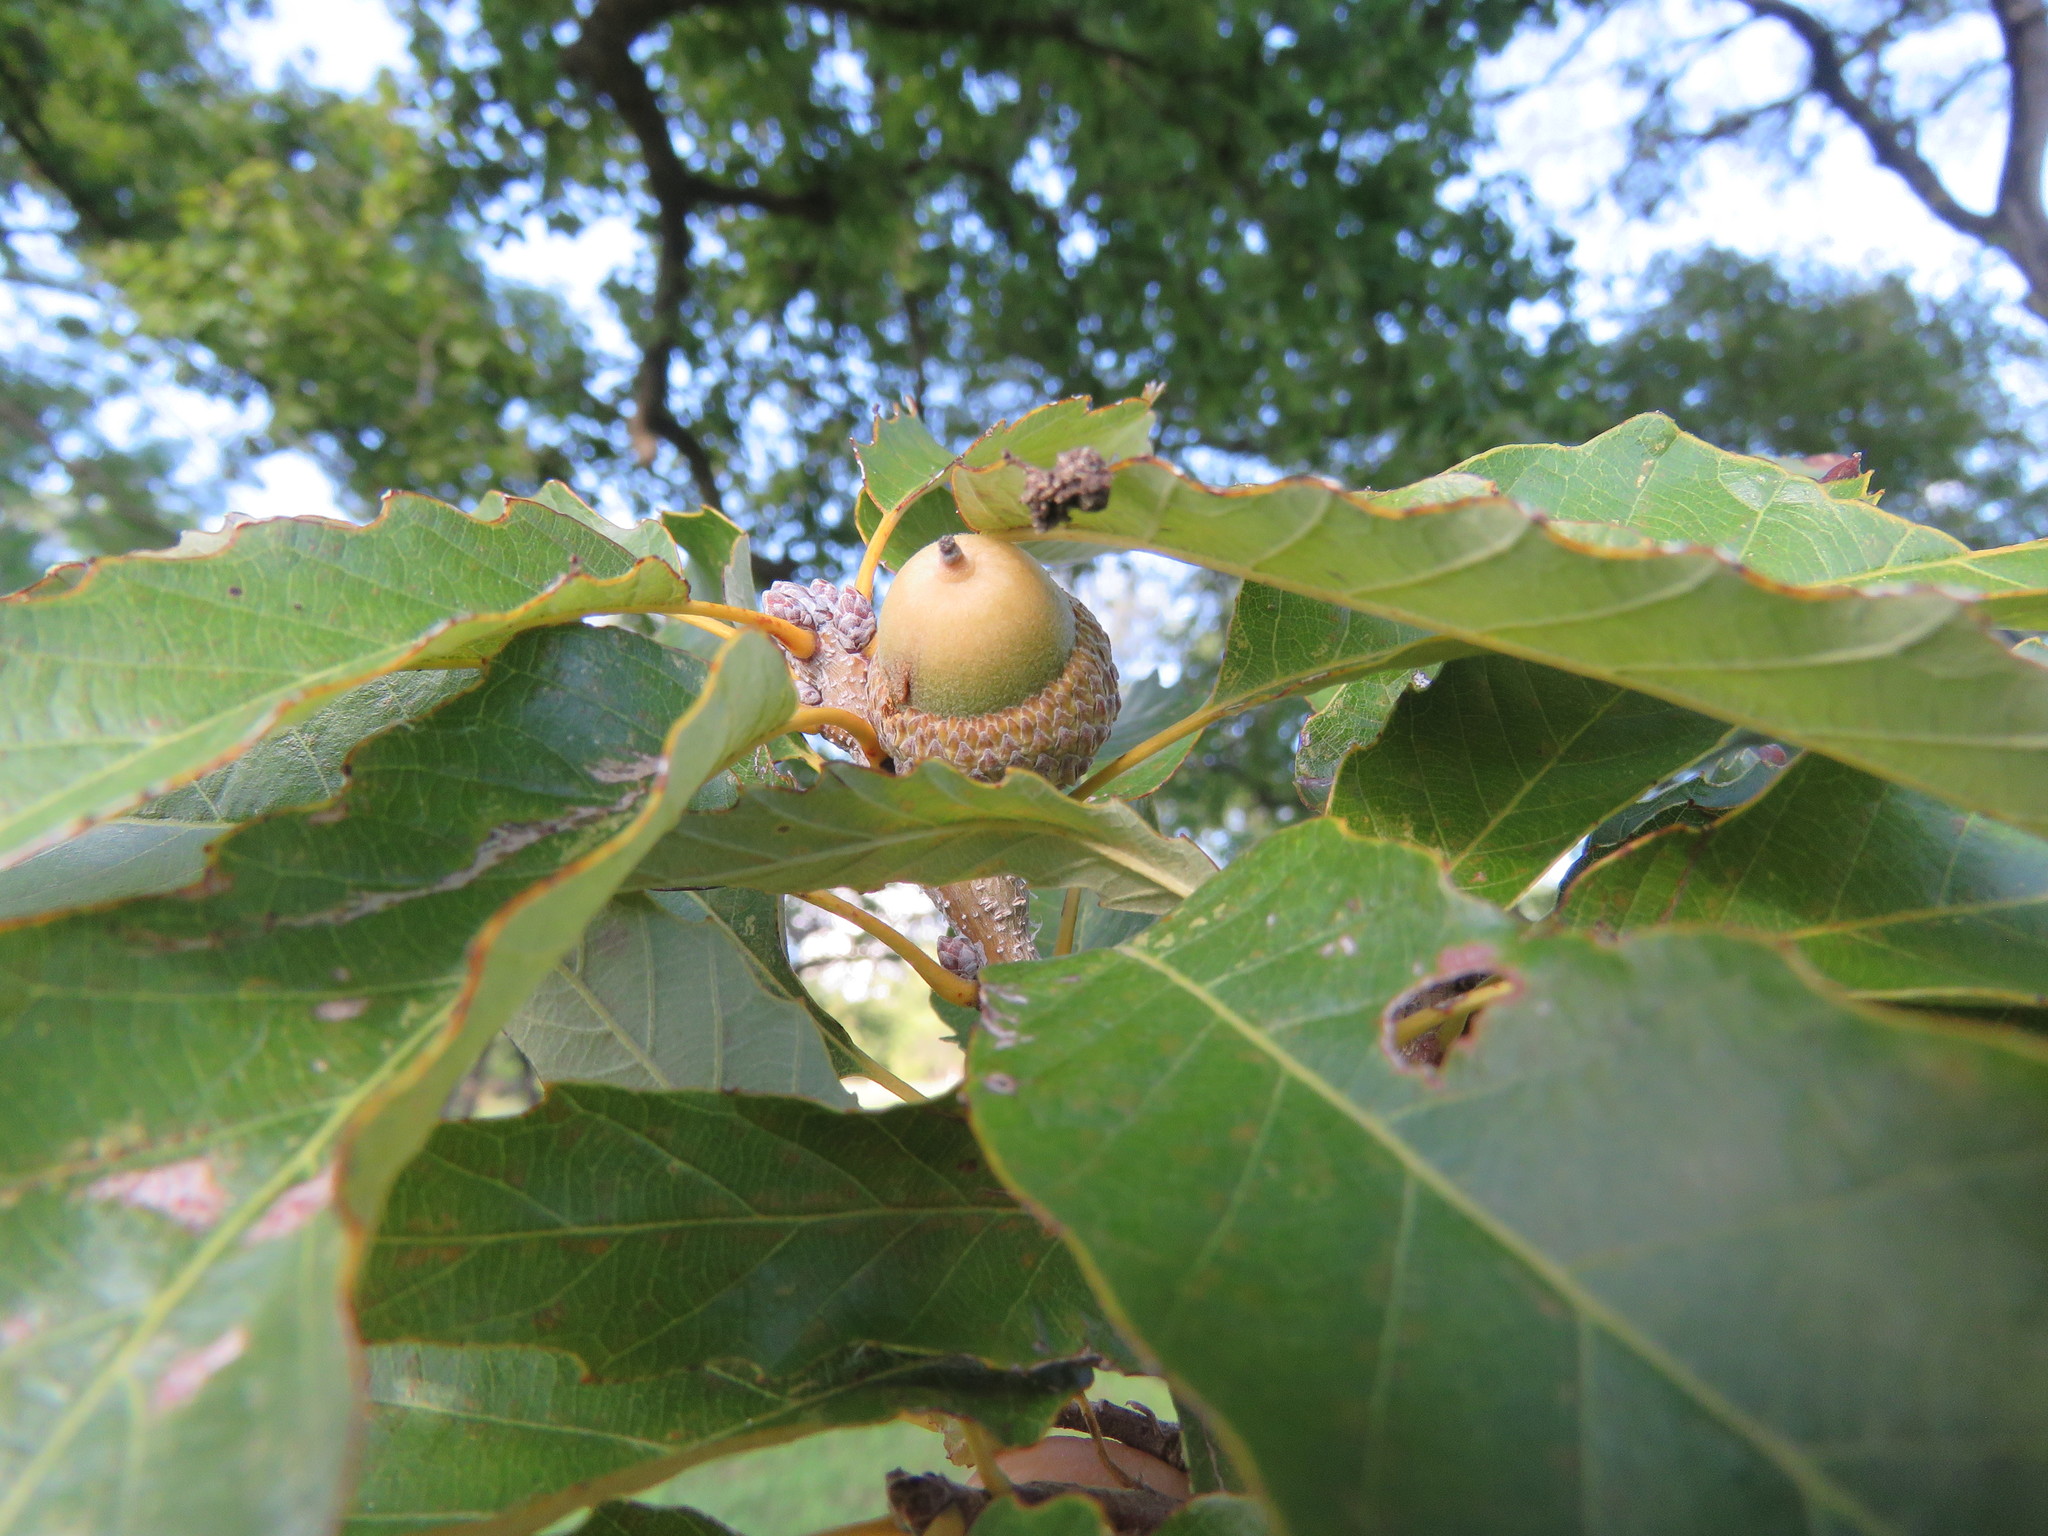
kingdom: Plantae
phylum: Tracheophyta
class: Magnoliopsida
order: Fagales
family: Fagaceae
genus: Quercus
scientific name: Quercus muehlenbergii
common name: Chinkapin oak
